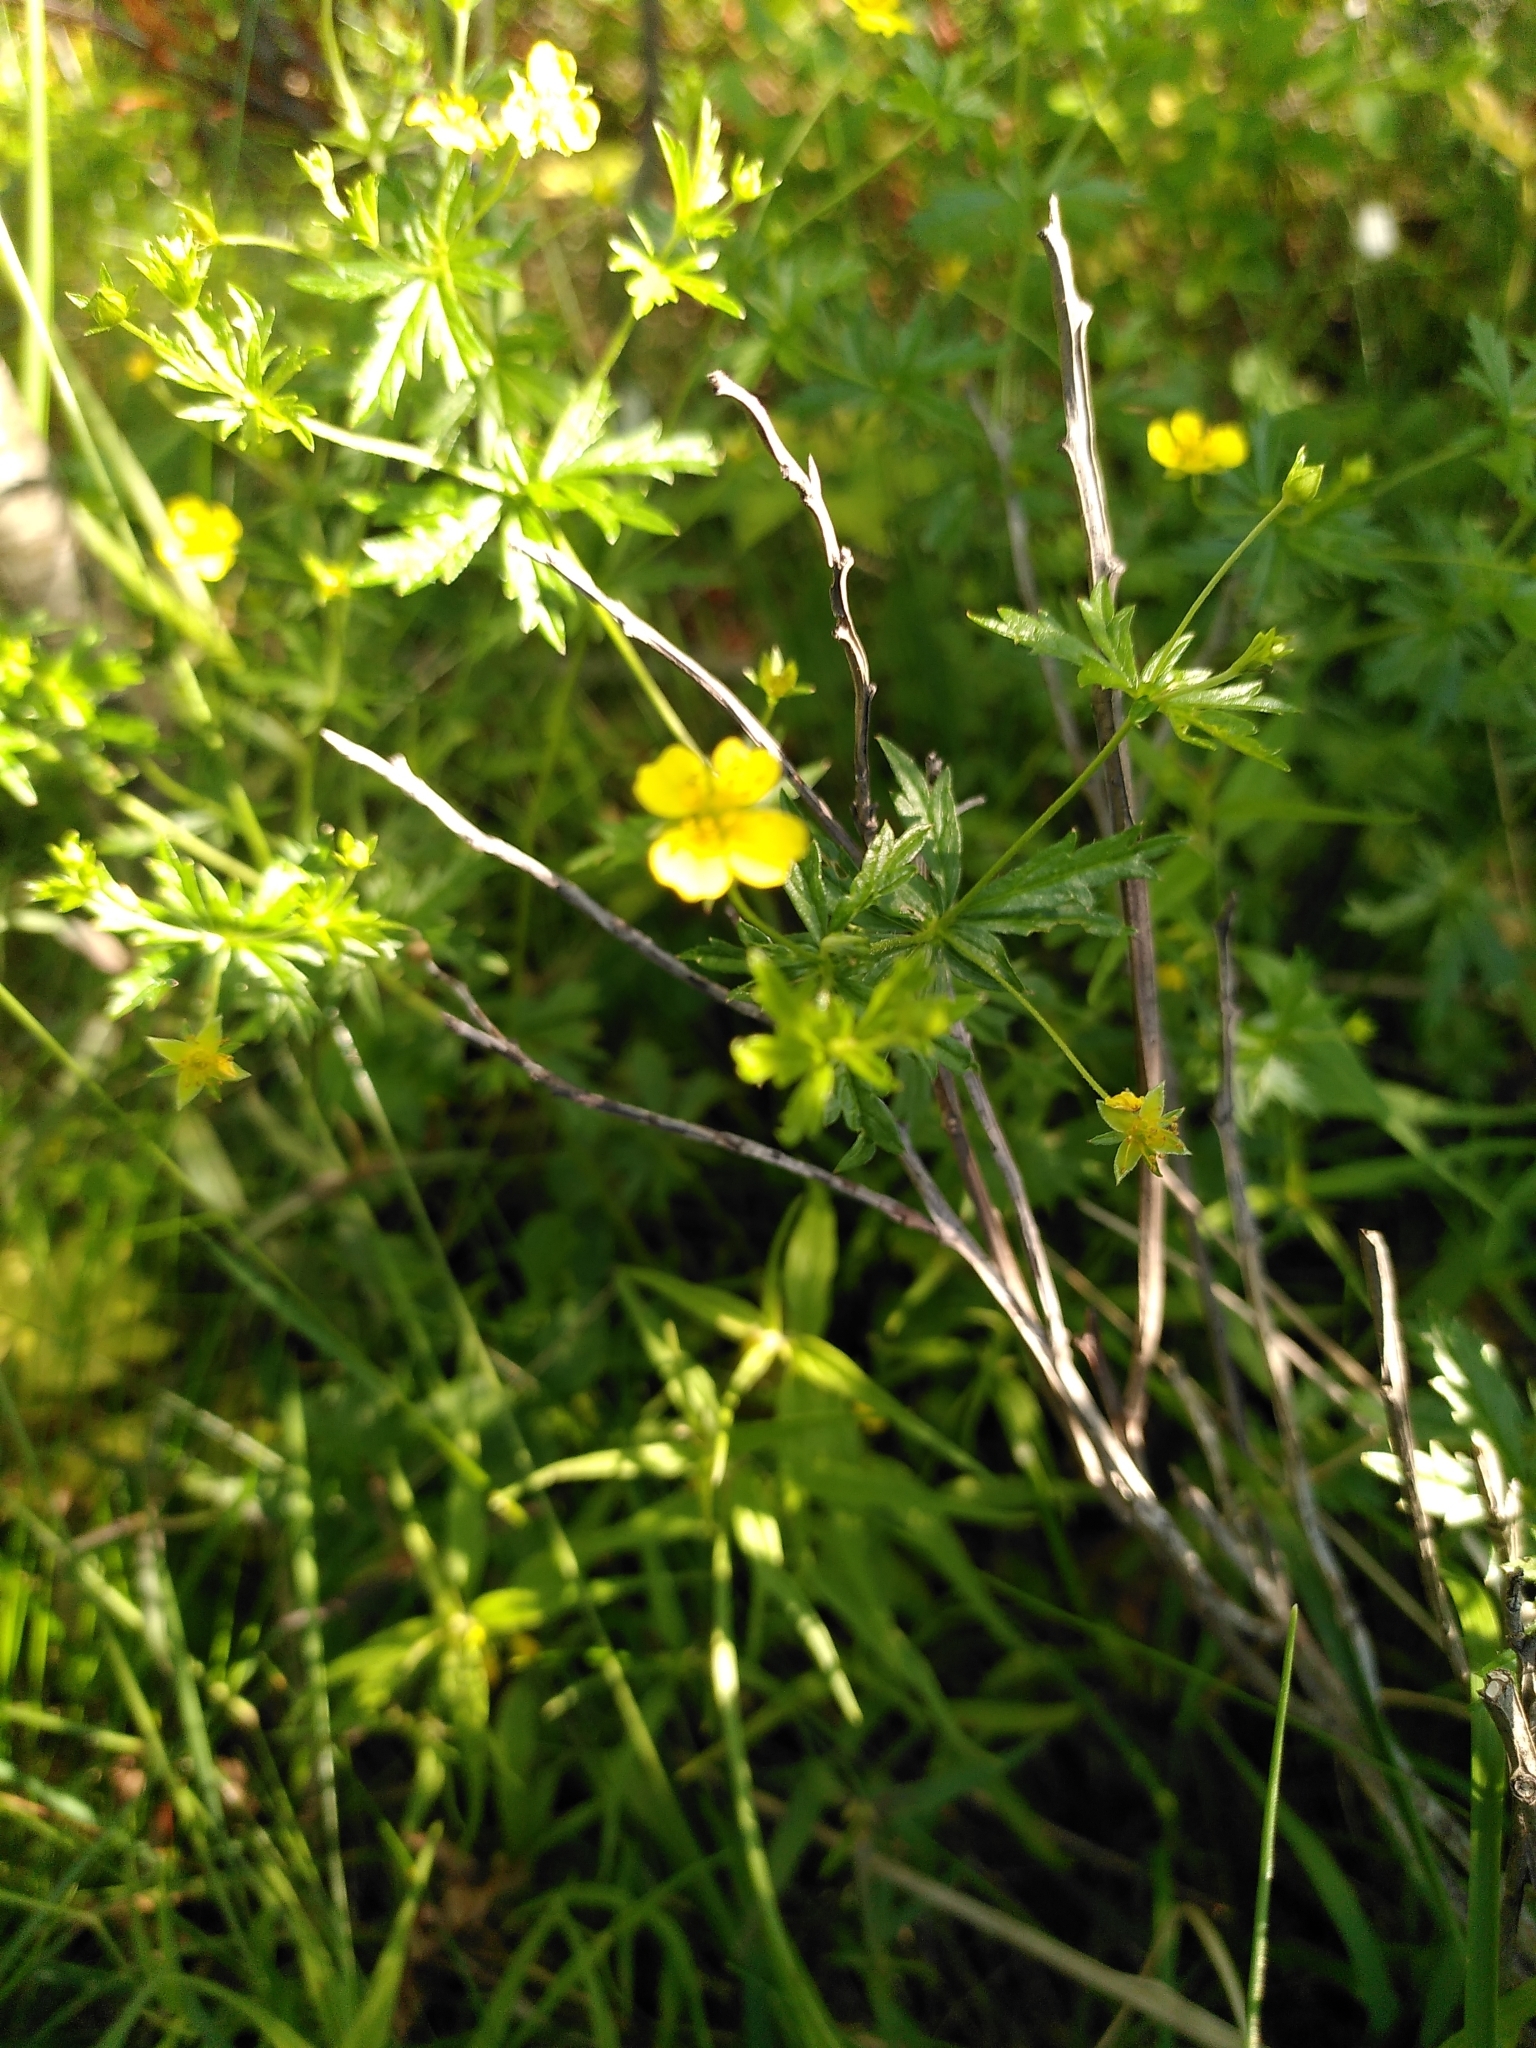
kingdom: Plantae
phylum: Tracheophyta
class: Magnoliopsida
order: Rosales
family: Rosaceae
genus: Potentilla
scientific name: Potentilla erecta
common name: Tormentil
